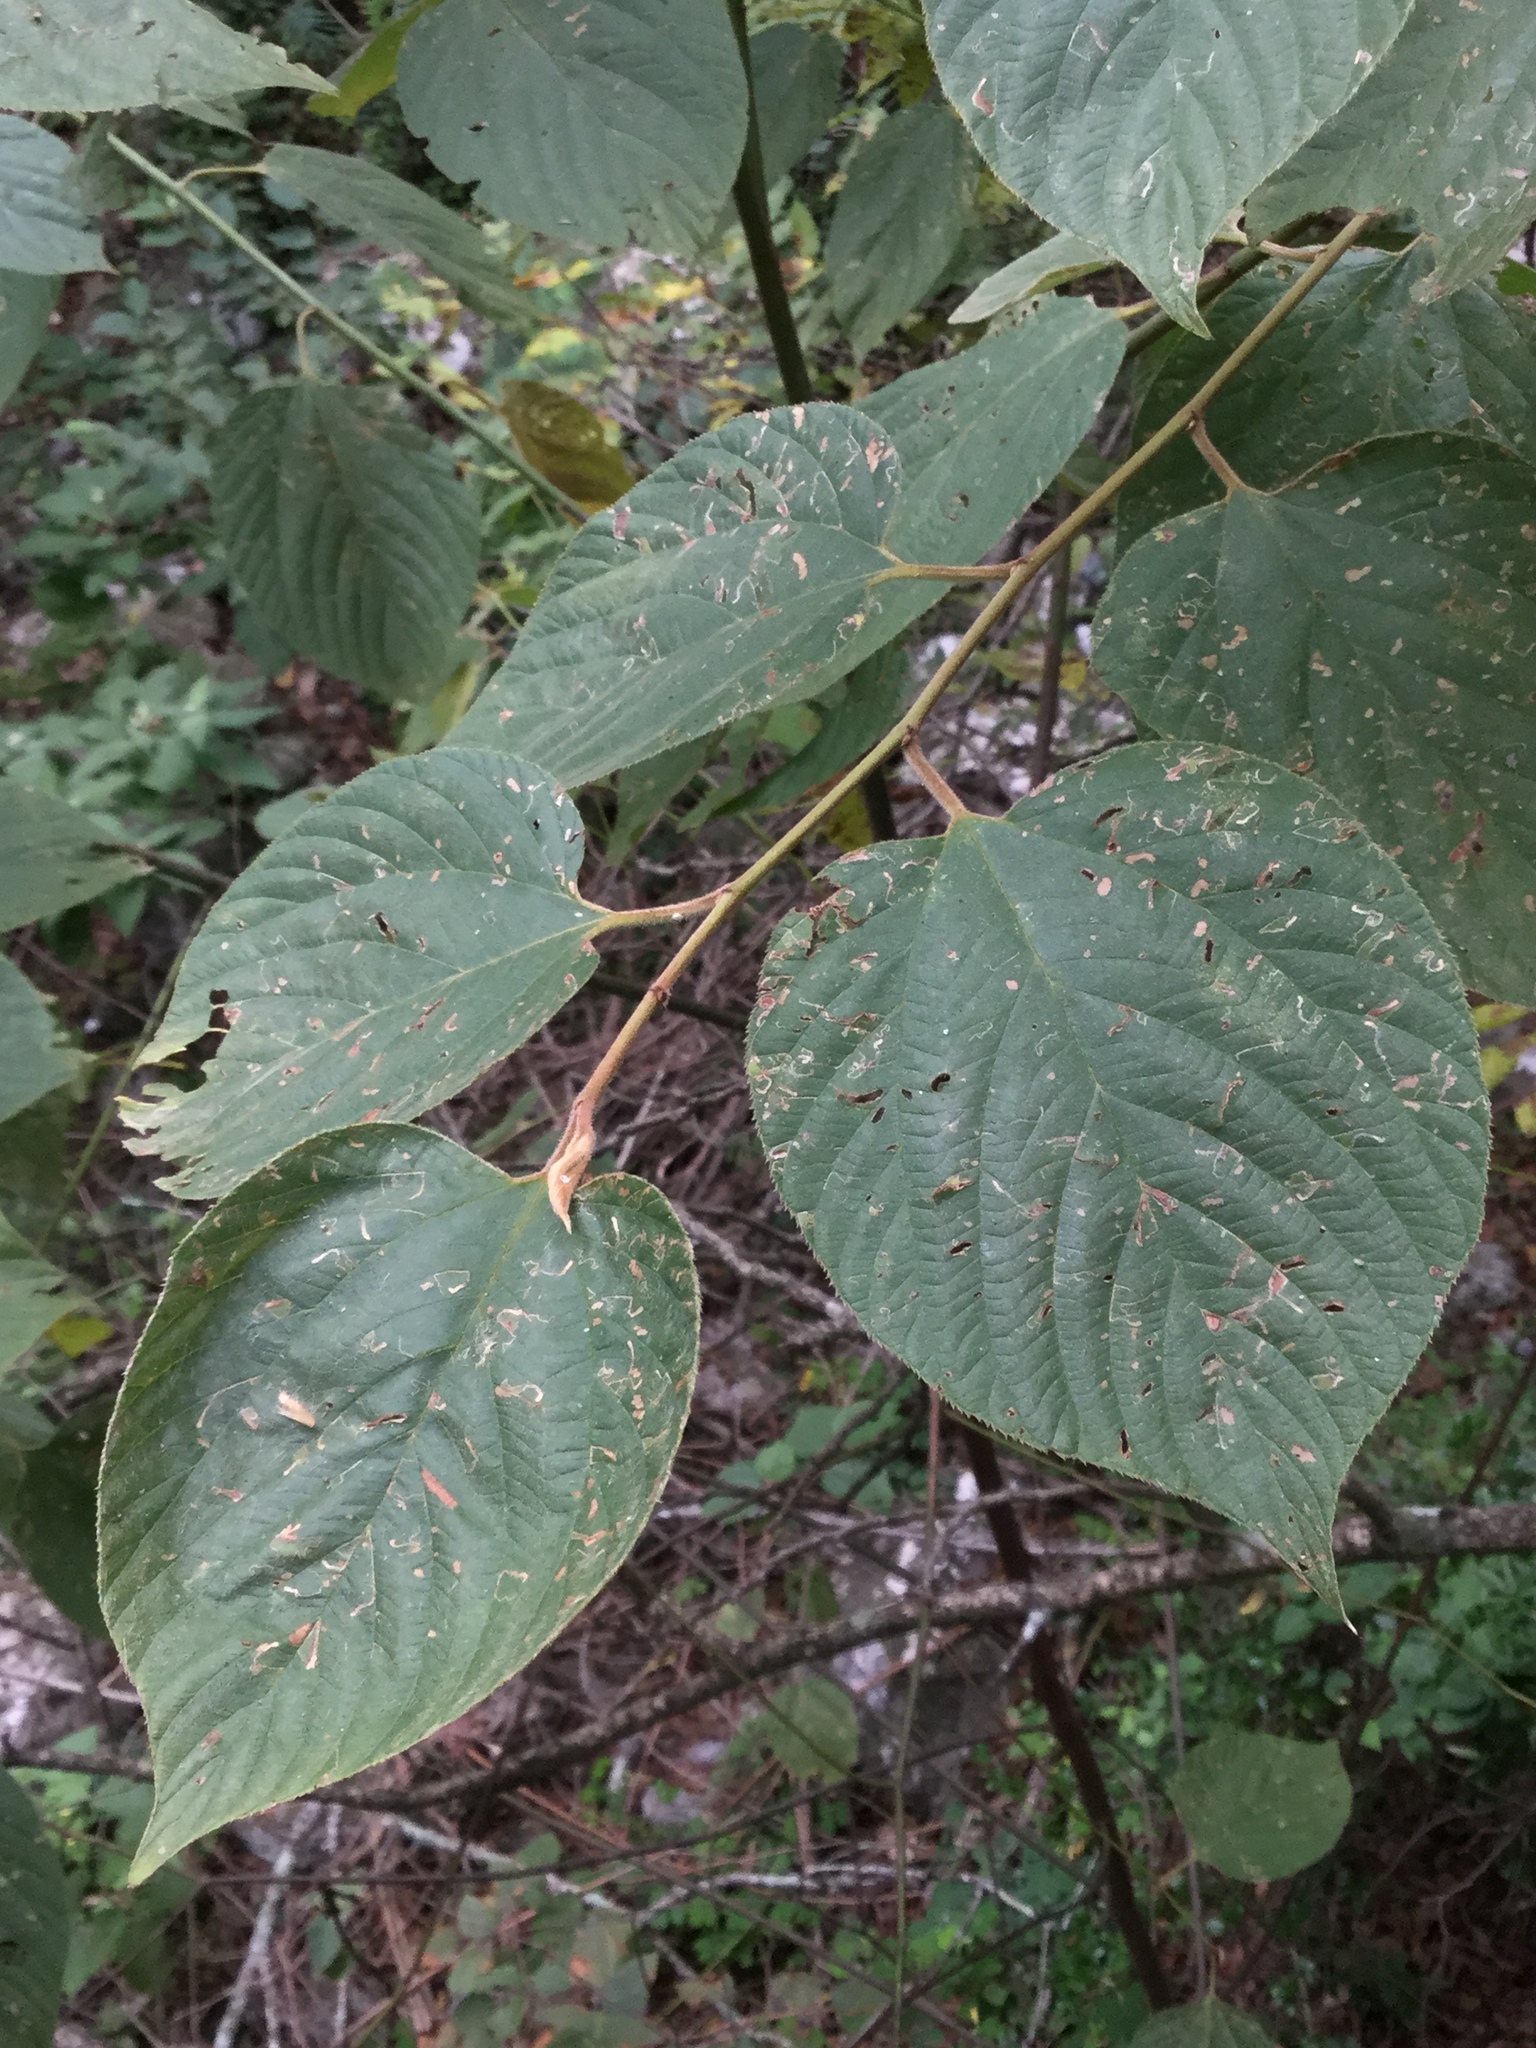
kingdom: Plantae
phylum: Tracheophyta
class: Magnoliopsida
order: Rosales
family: Rhamnaceae
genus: Colubrina
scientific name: Colubrina greggii
